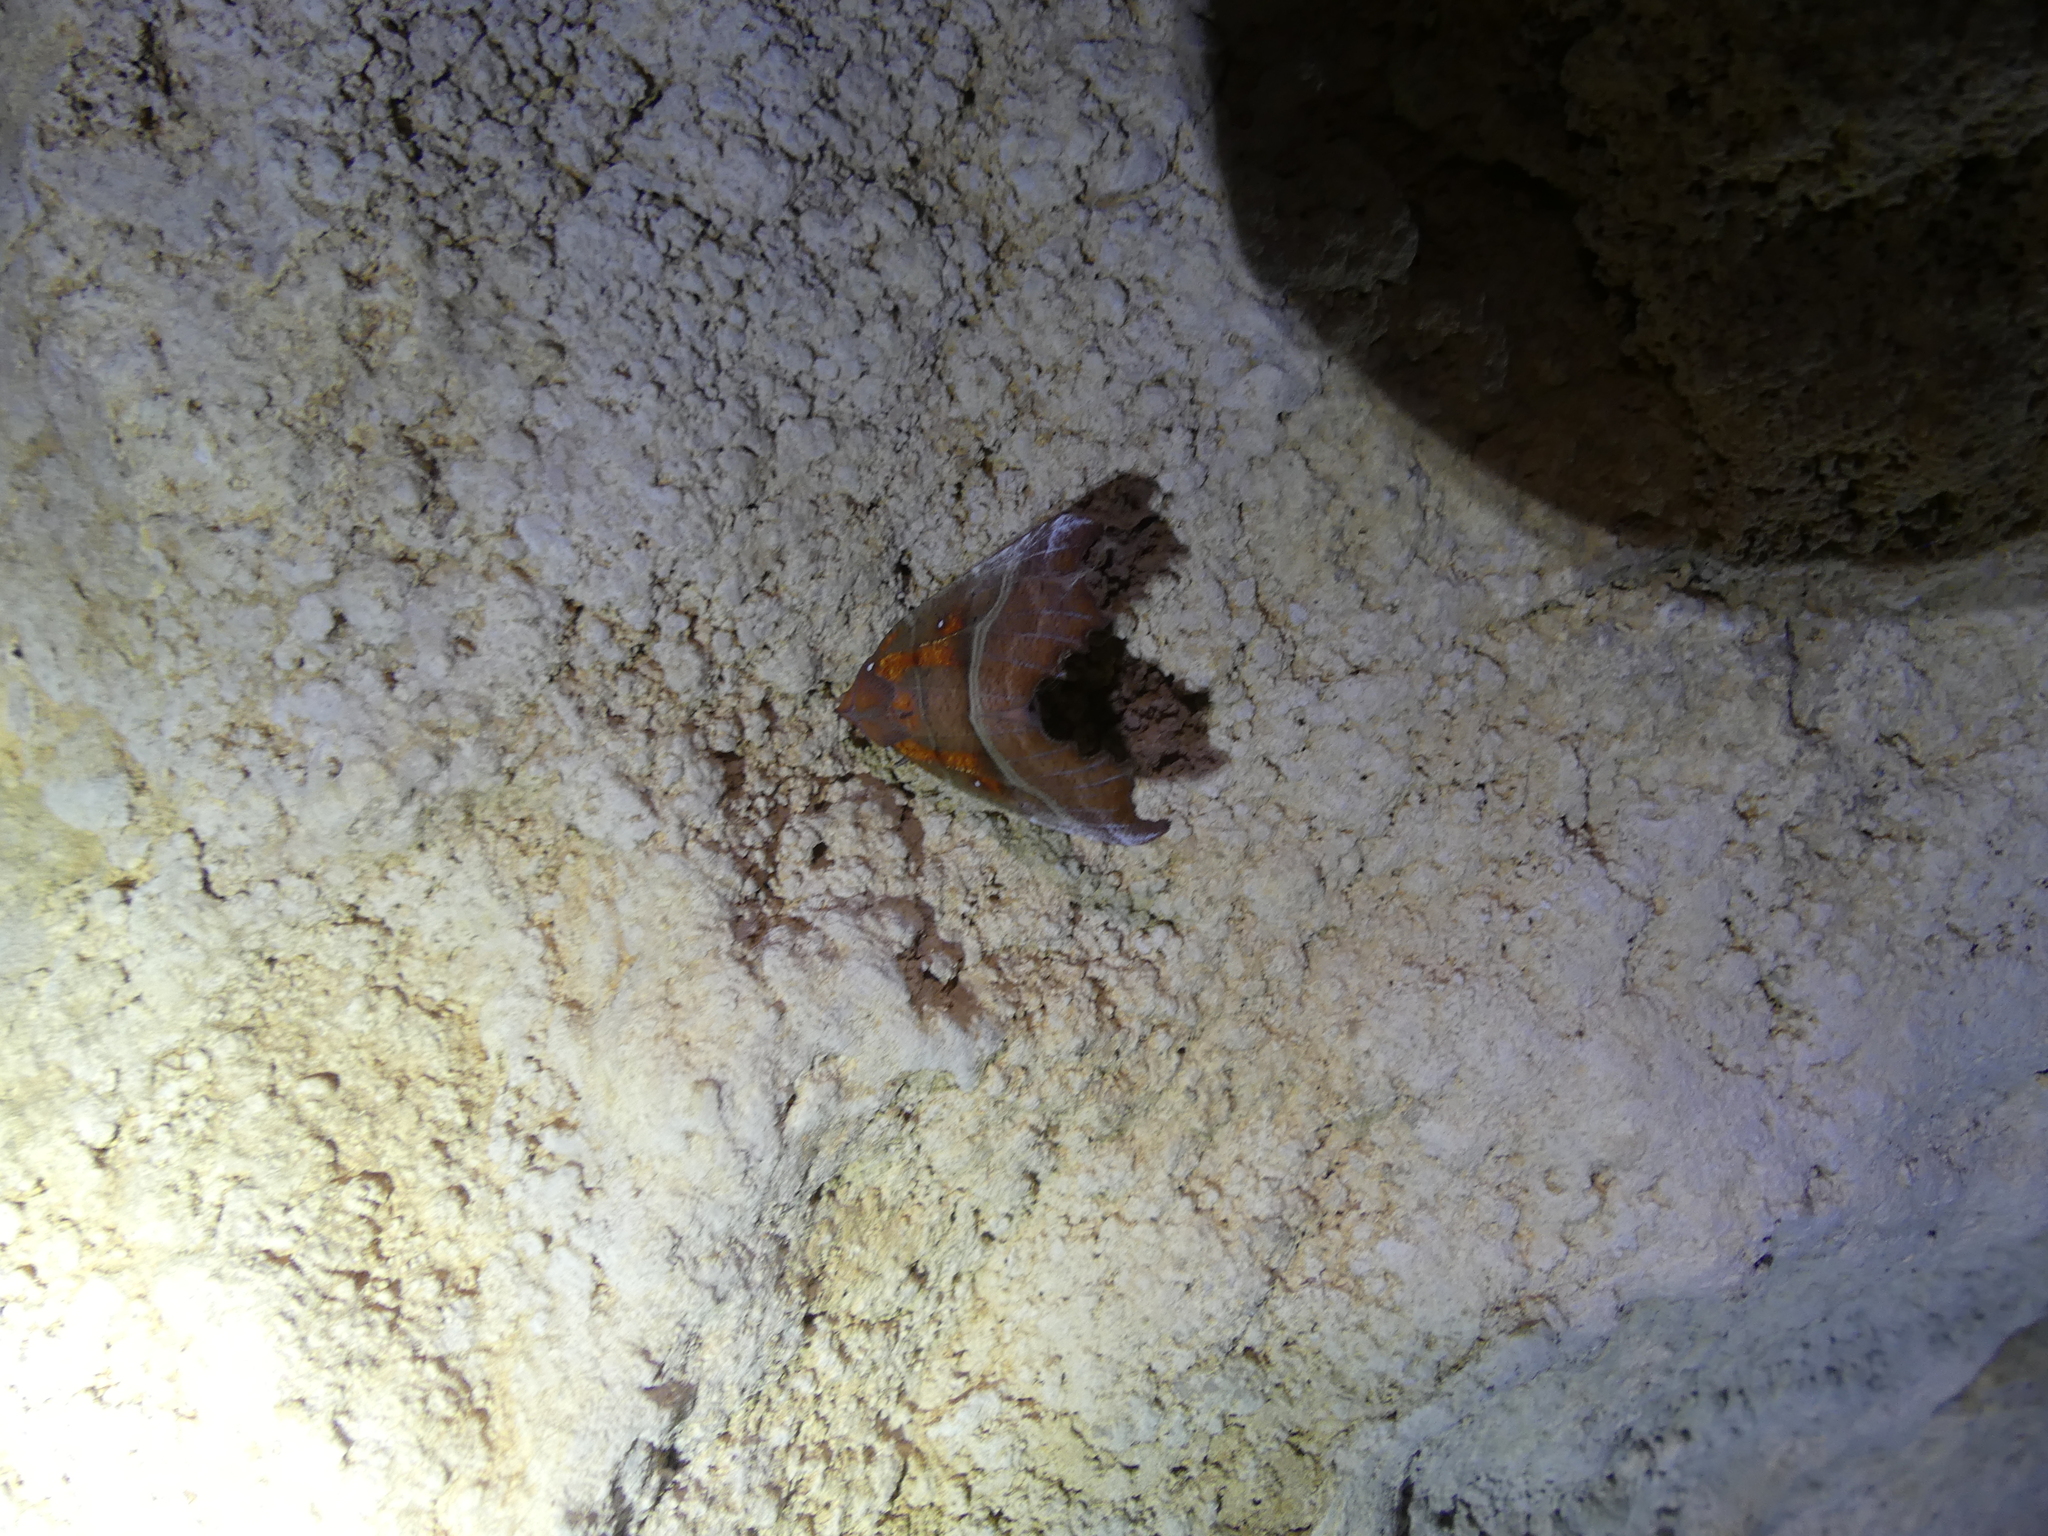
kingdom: Animalia
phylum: Arthropoda
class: Insecta
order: Lepidoptera
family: Erebidae
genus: Scoliopteryx
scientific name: Scoliopteryx libatrix
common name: Herald
